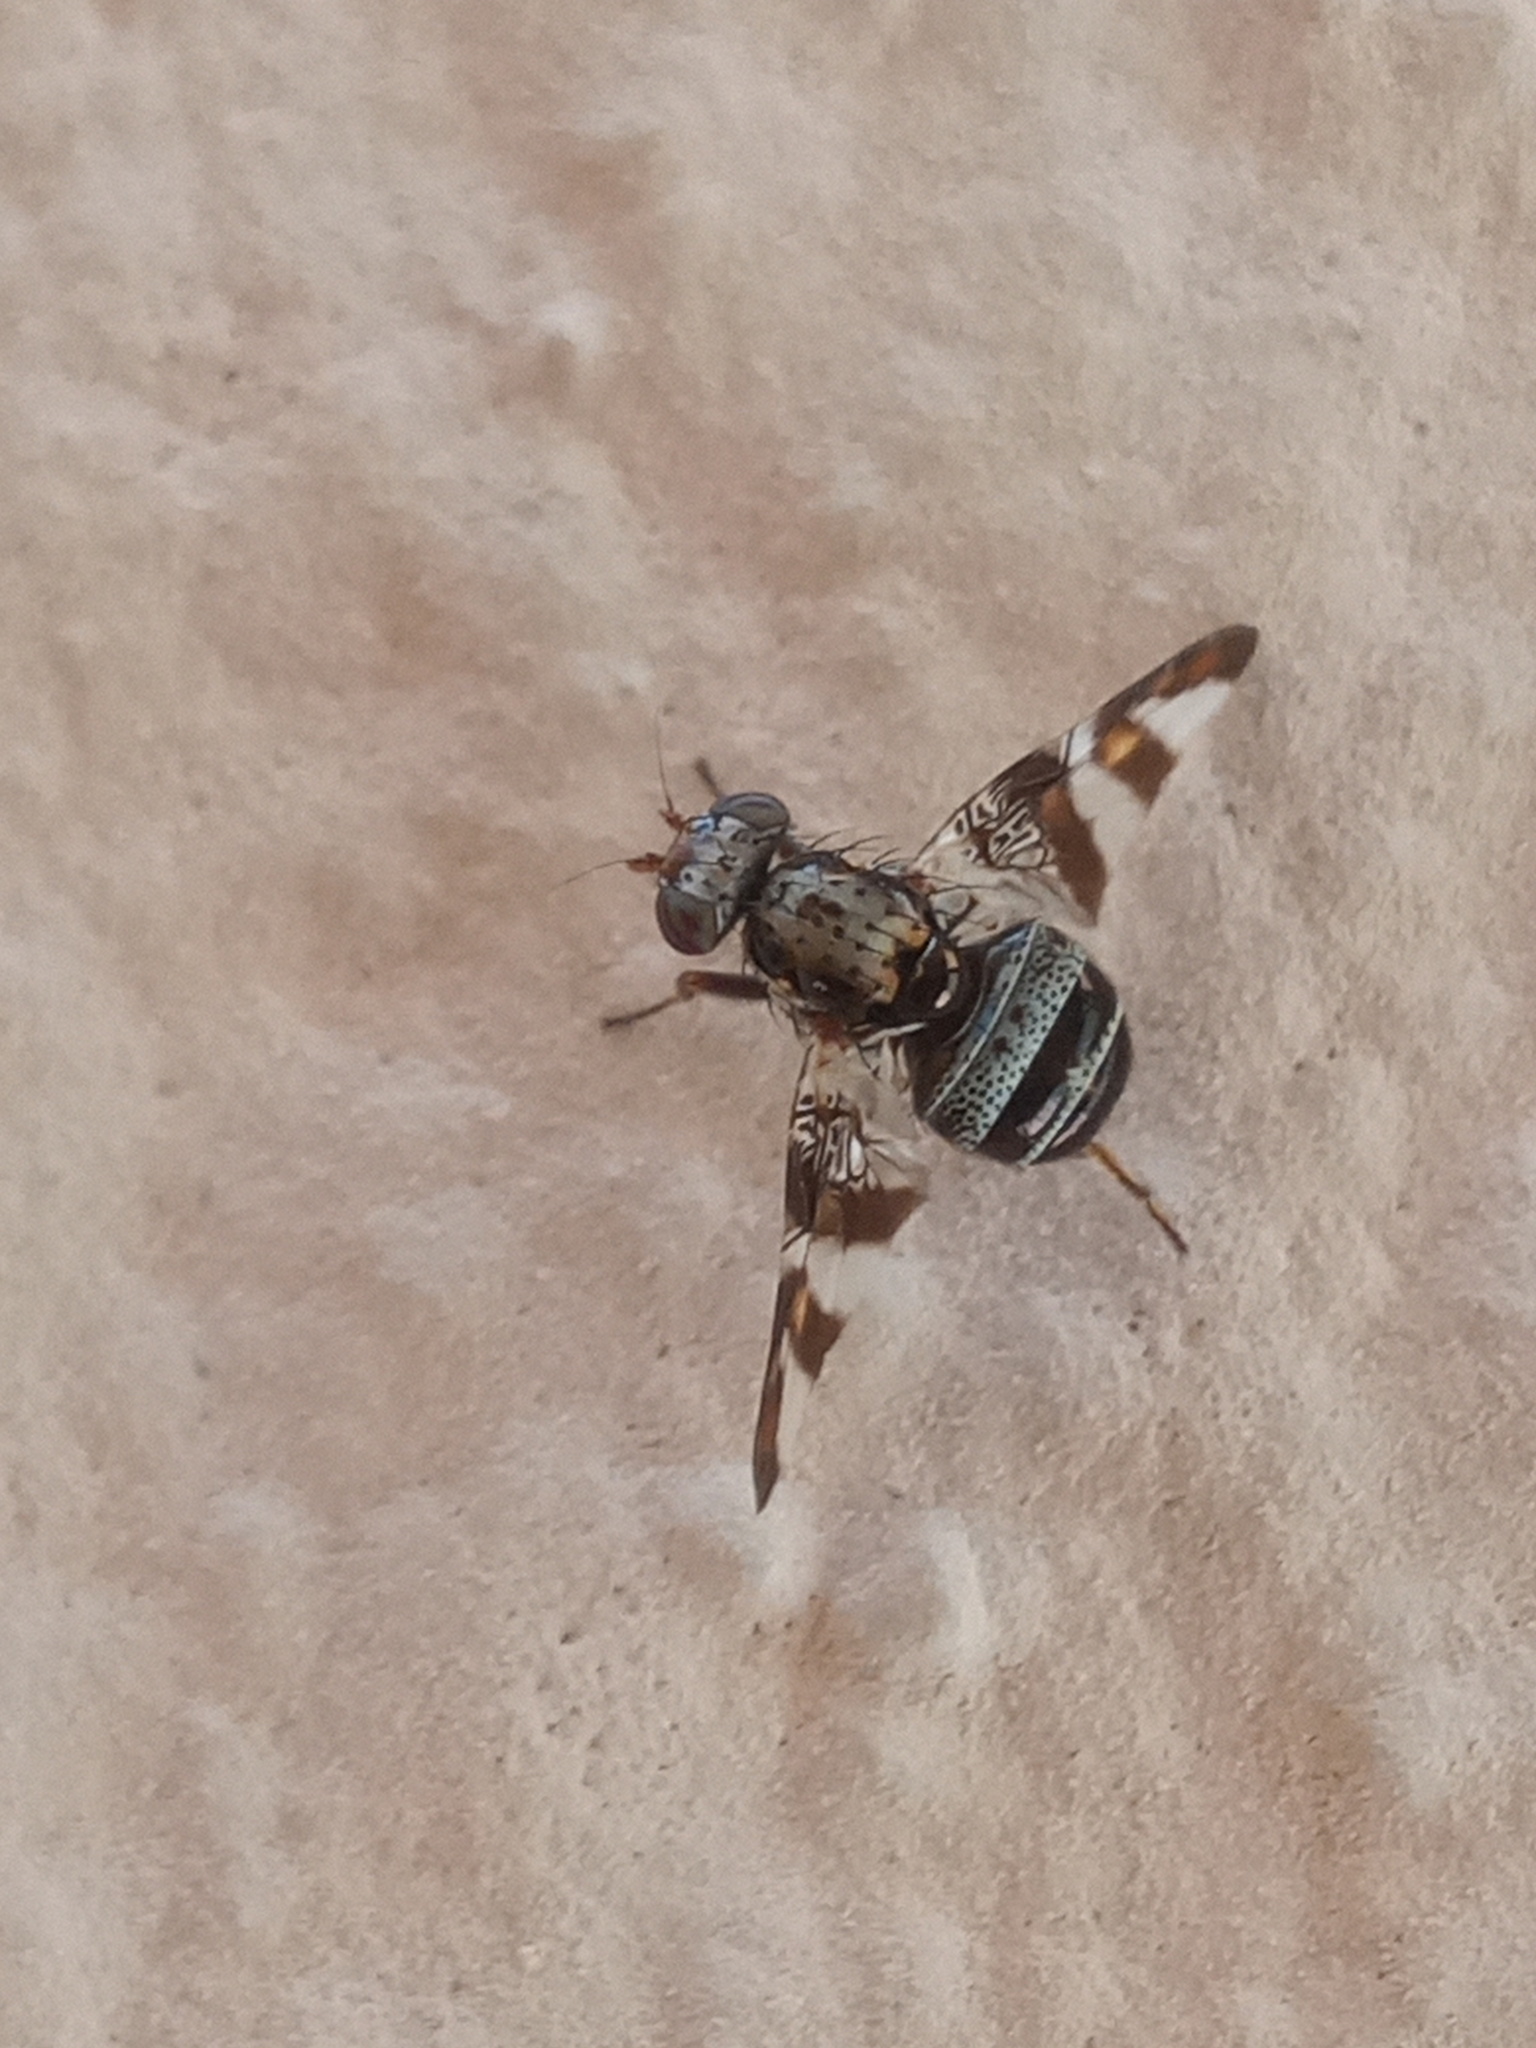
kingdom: Animalia
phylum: Arthropoda
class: Insecta
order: Diptera
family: Ulidiidae
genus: Dyscrasis
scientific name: Dyscrasis hendeli
